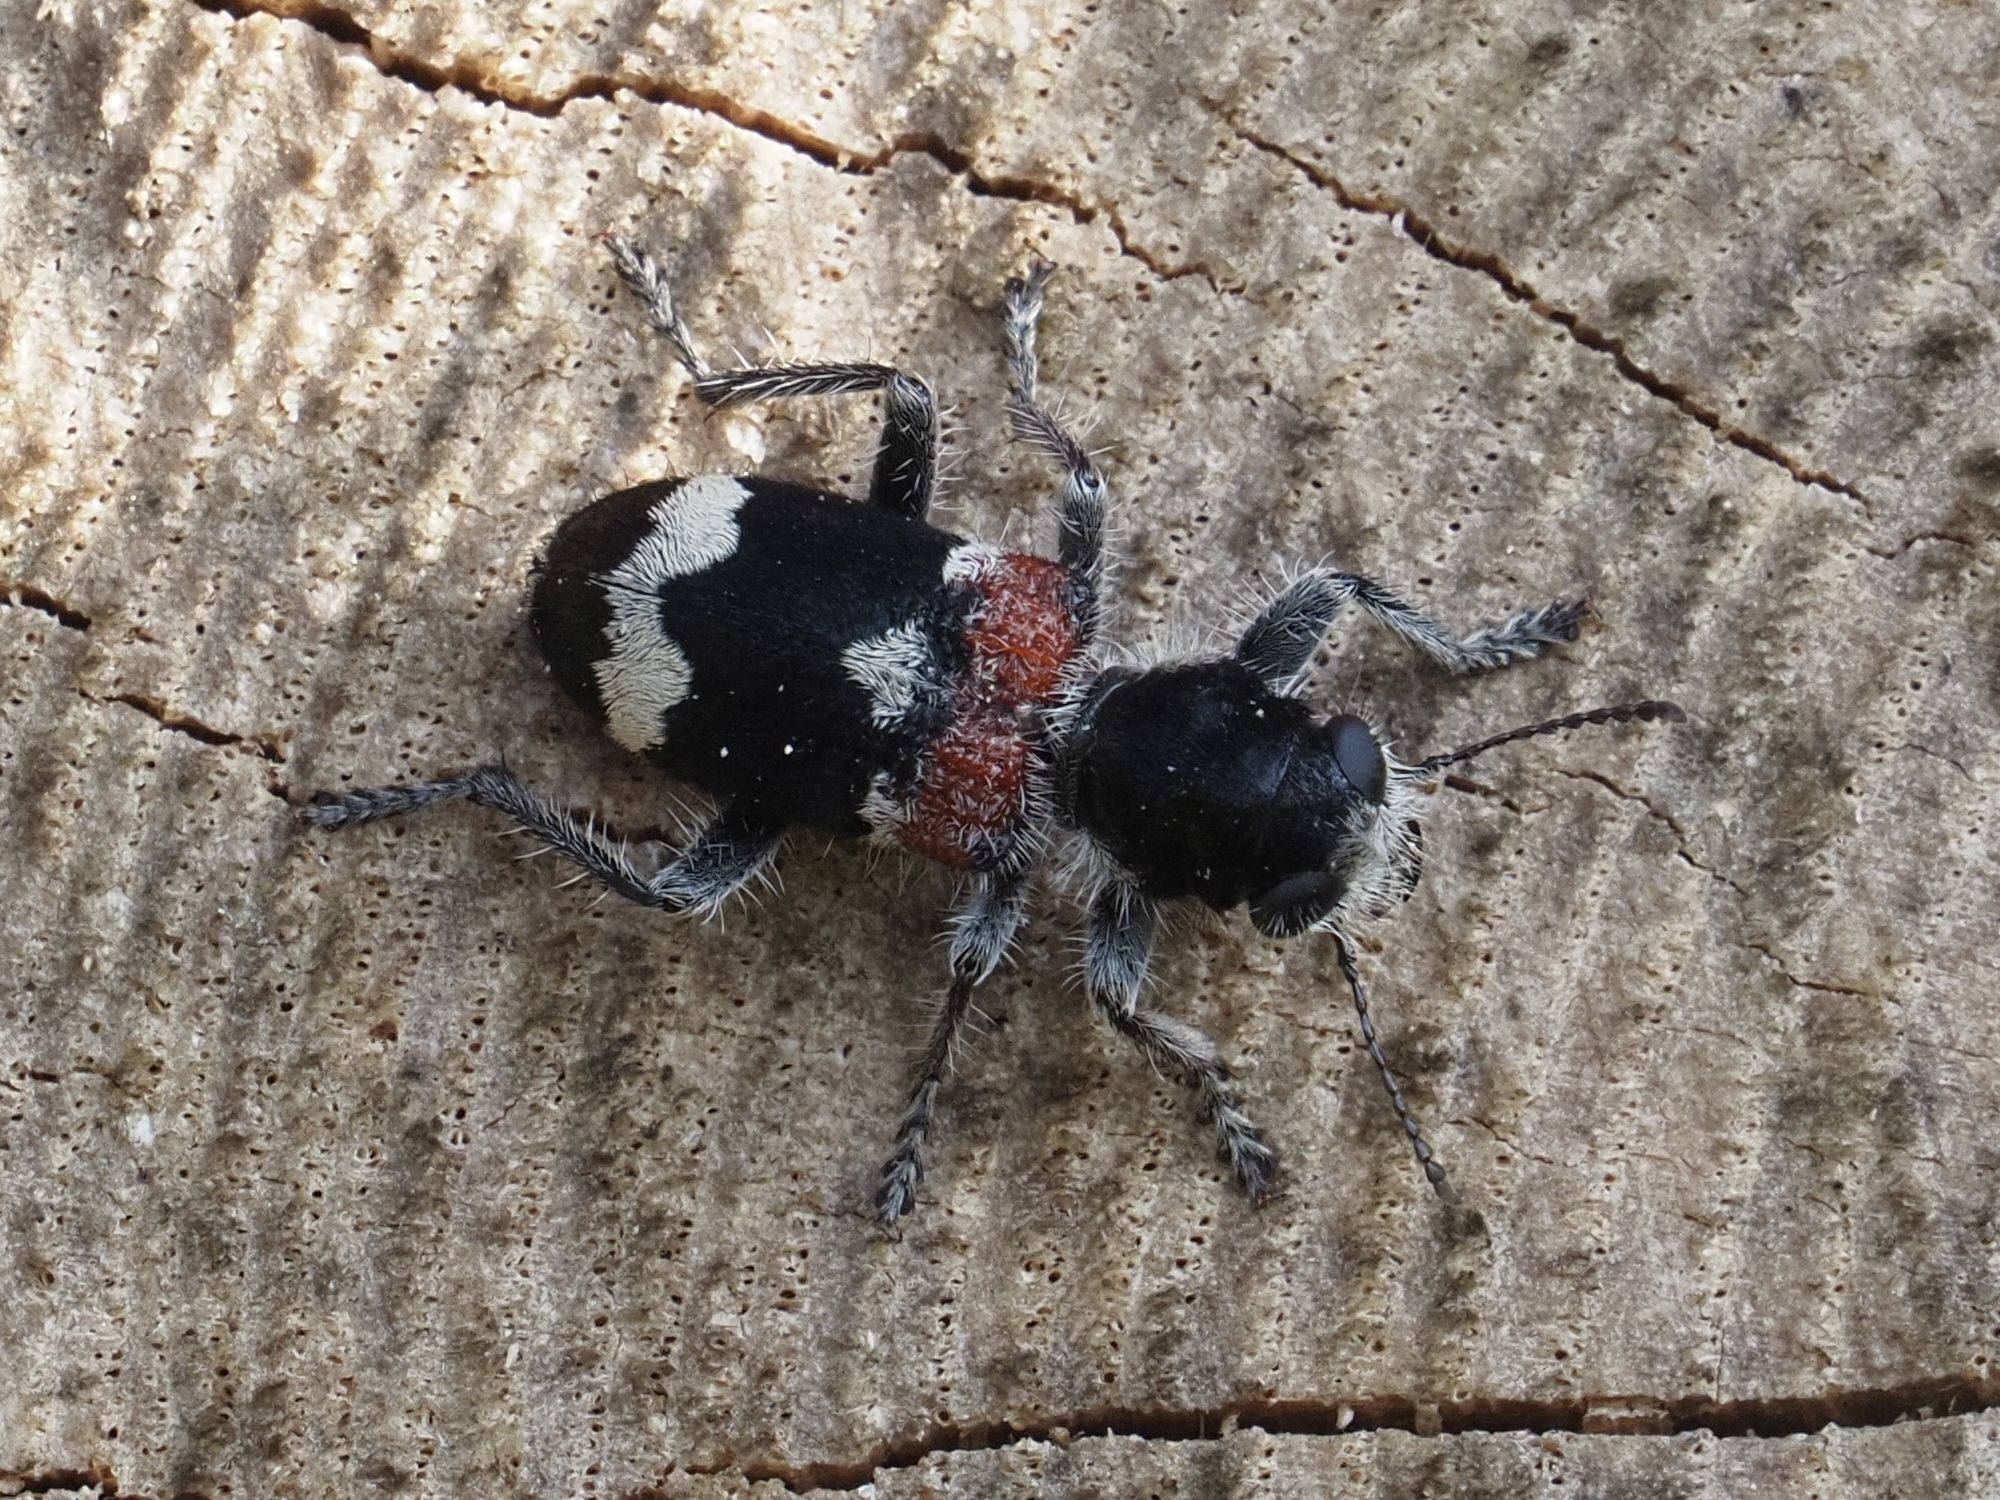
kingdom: Animalia
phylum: Arthropoda
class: Insecta
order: Coleoptera
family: Cleridae
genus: Clerus
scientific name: Clerus mutillarius
